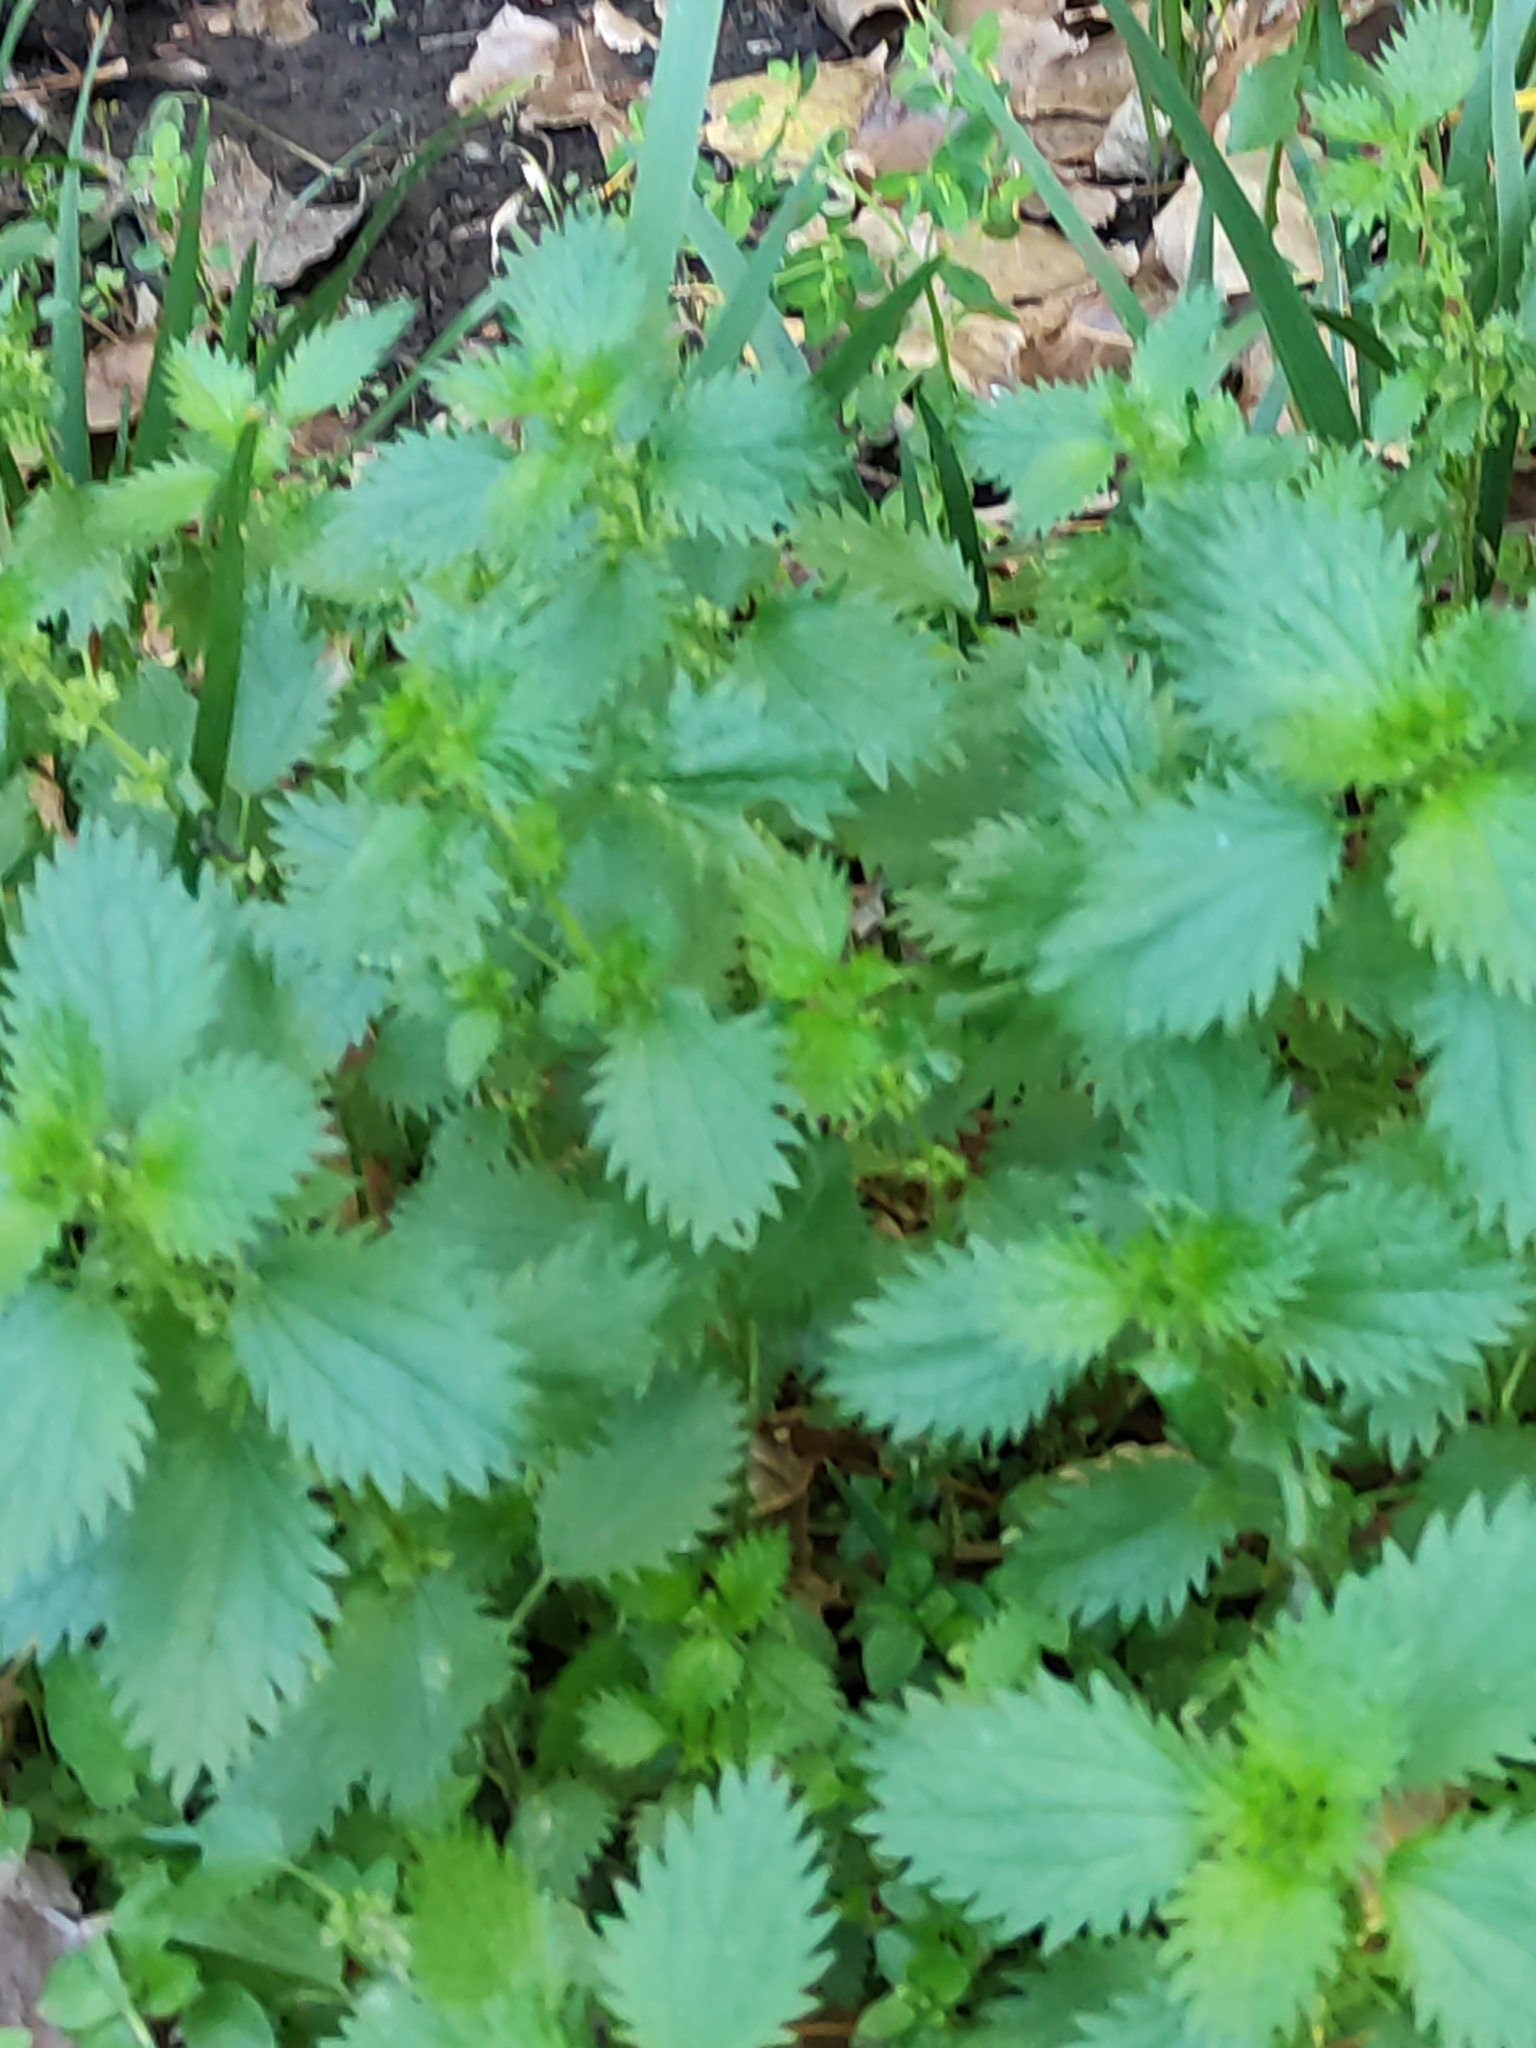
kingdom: Plantae
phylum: Tracheophyta
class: Magnoliopsida
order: Rosales
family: Urticaceae
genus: Urtica
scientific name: Urtica urens
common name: Dwarf nettle
